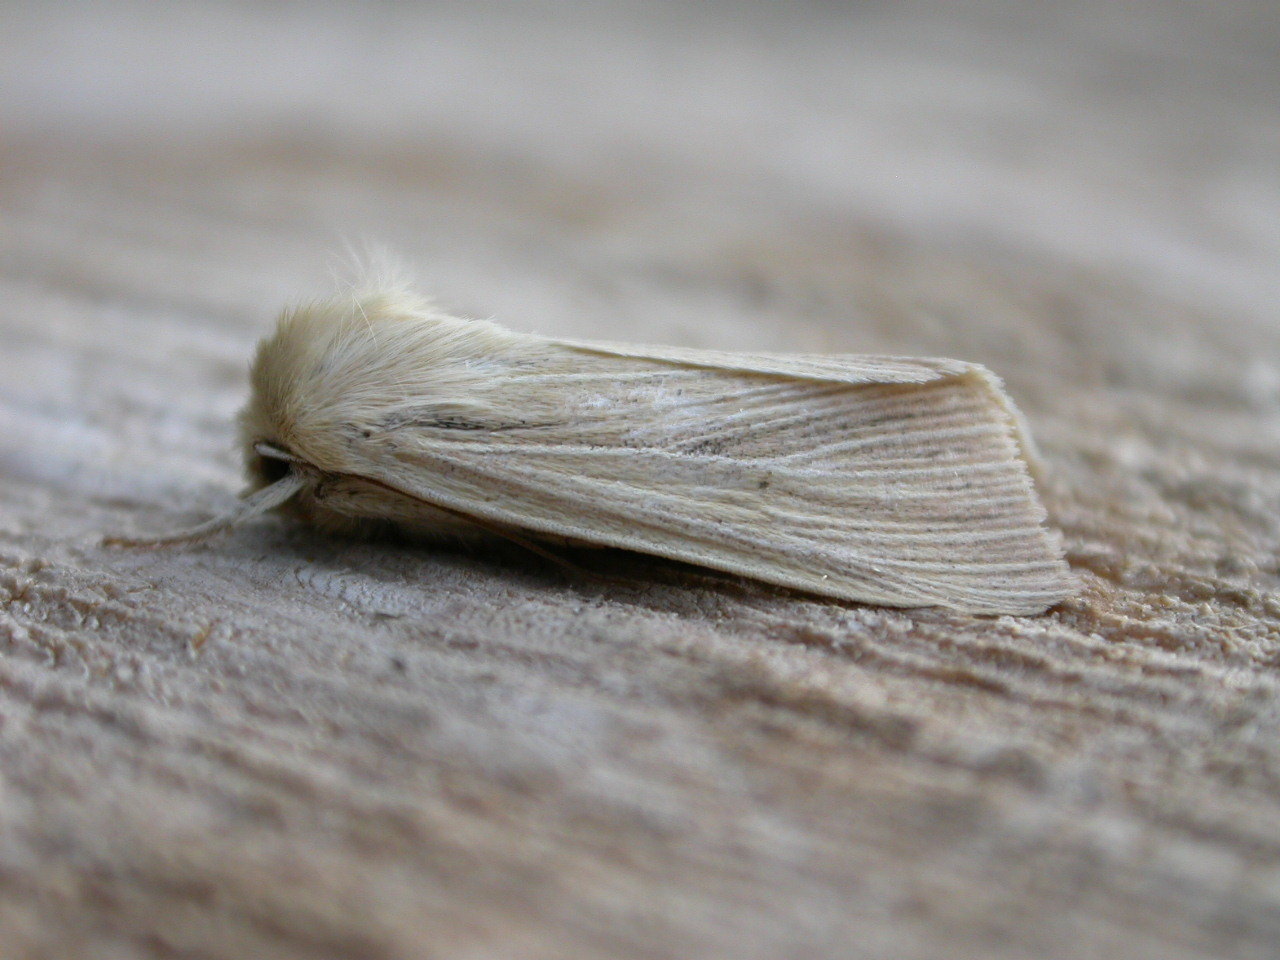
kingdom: Animalia
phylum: Arthropoda
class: Insecta
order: Lepidoptera
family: Noctuidae
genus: Mythimna
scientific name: Mythimna pallens
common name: Common wainscot
